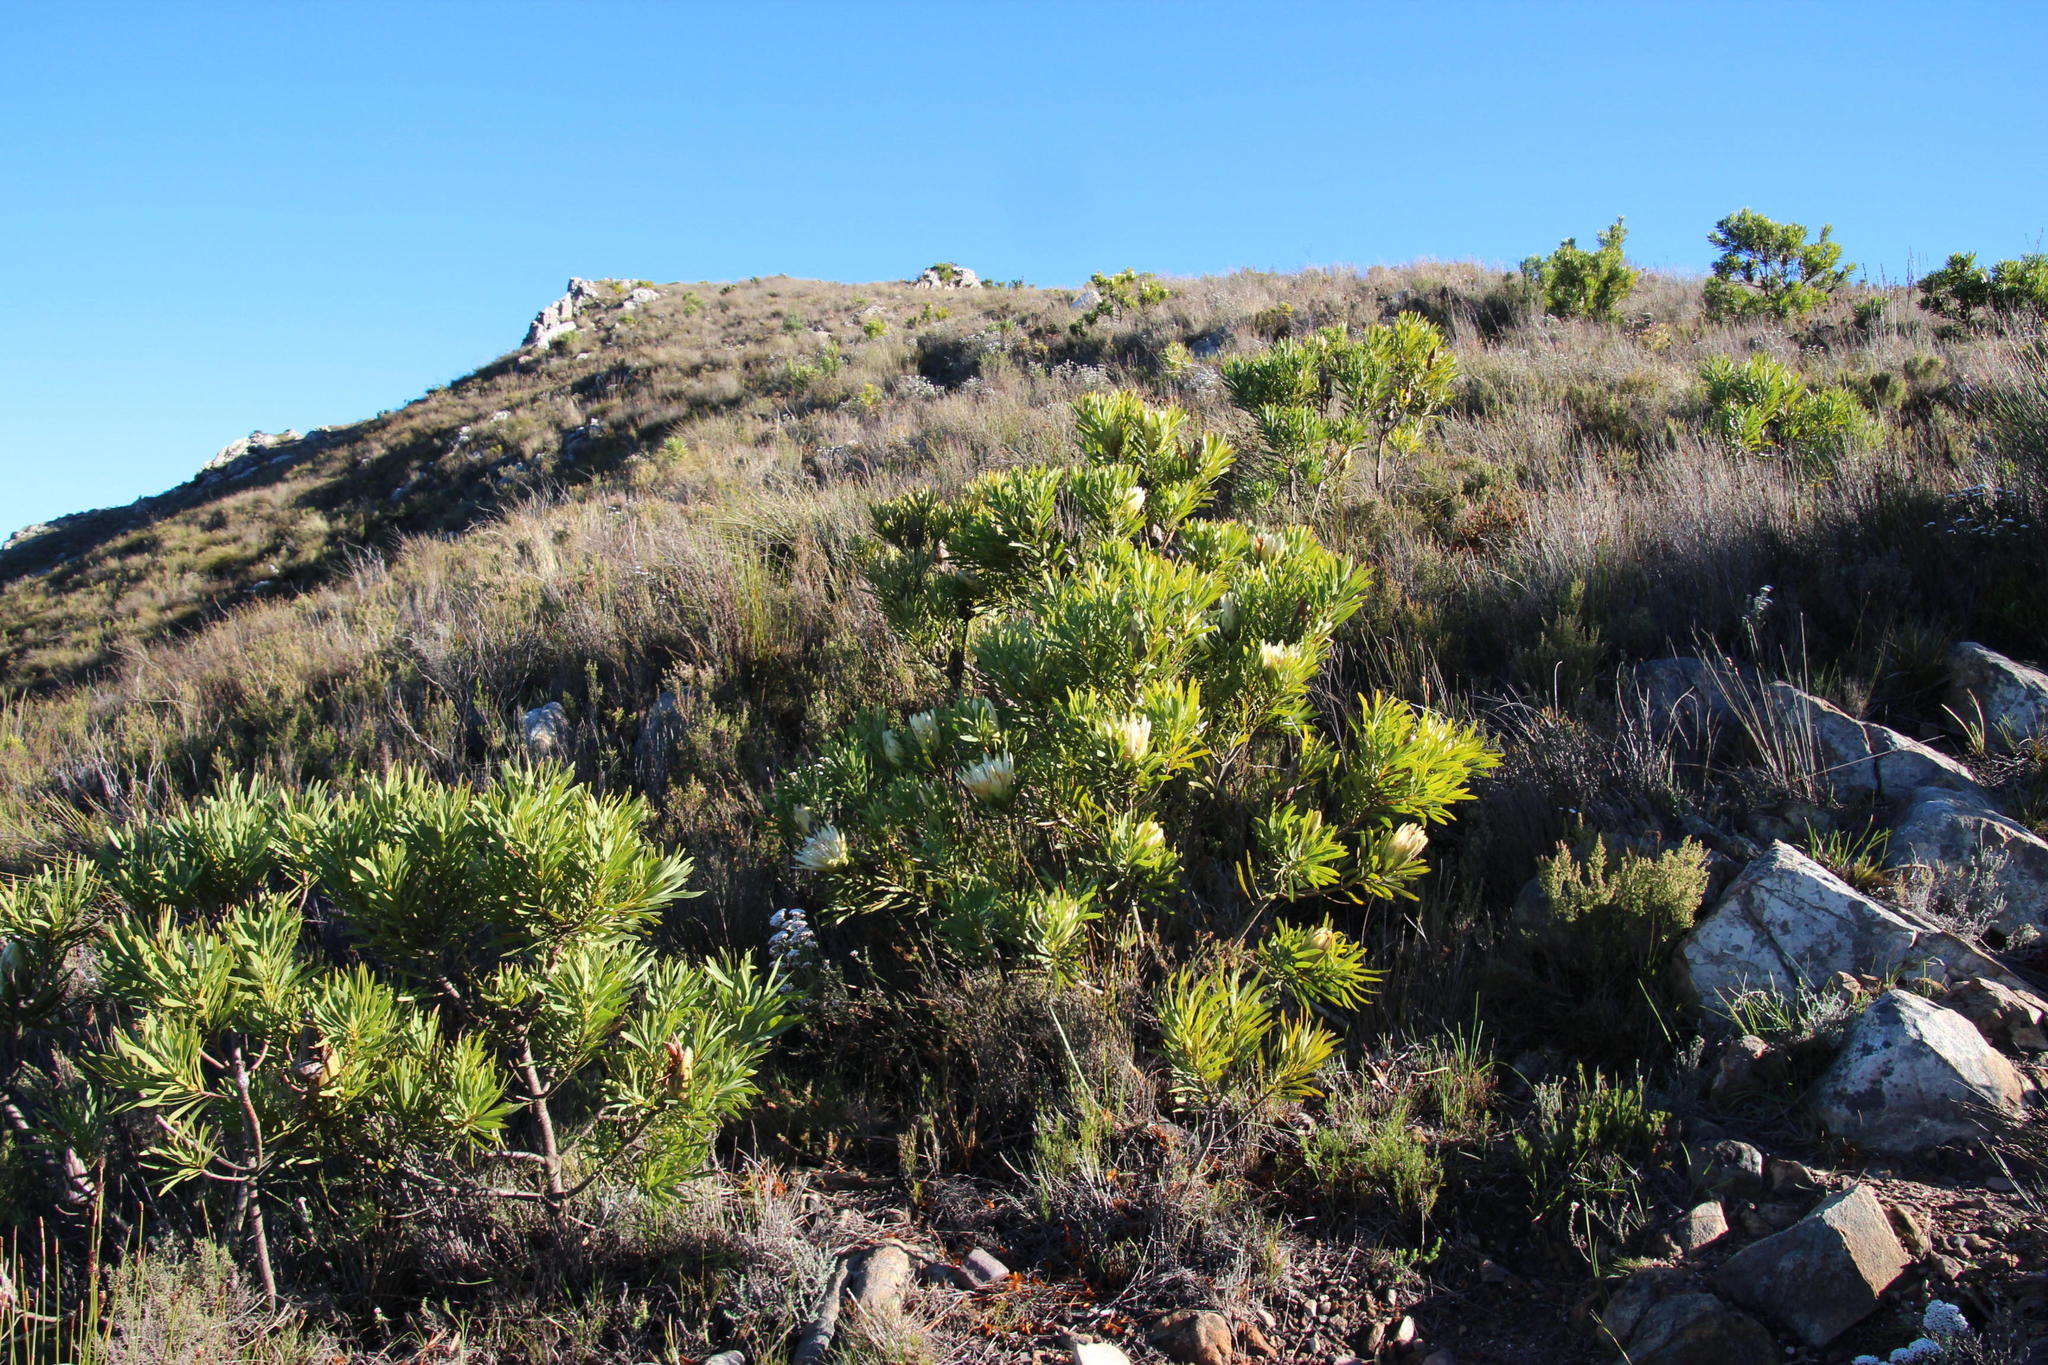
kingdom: Plantae
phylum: Tracheophyta
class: Magnoliopsida
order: Proteales
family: Proteaceae
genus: Protea
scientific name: Protea repens
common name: Sugarbush
